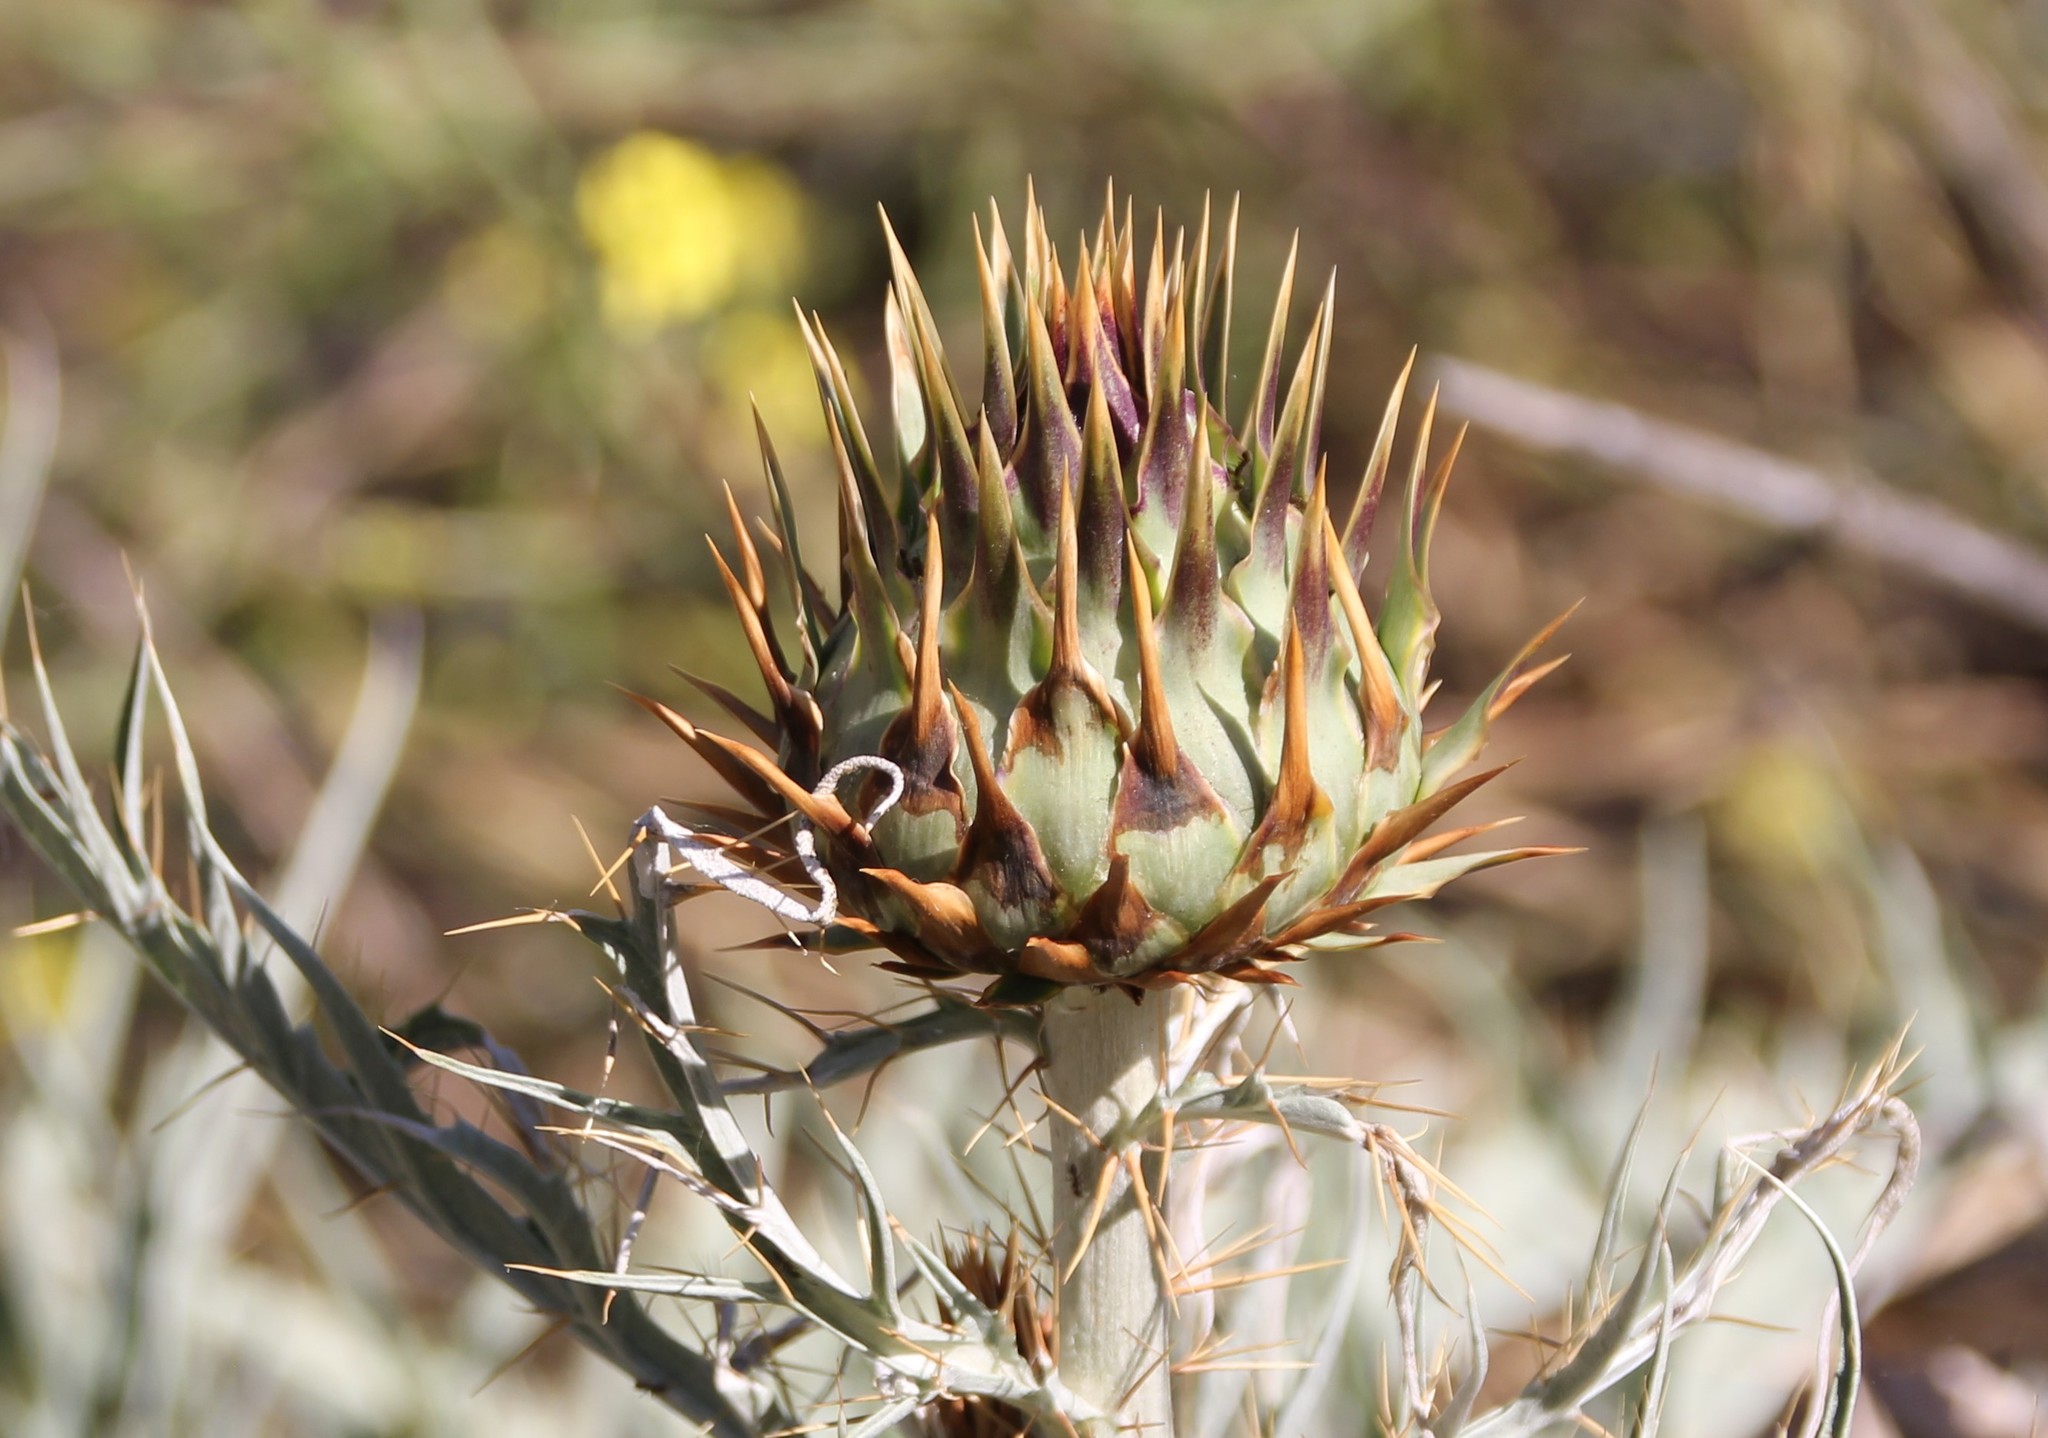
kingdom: Plantae
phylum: Tracheophyta
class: Magnoliopsida
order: Asterales
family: Asteraceae
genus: Cynara
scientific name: Cynara cardunculus
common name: Globe artichoke
